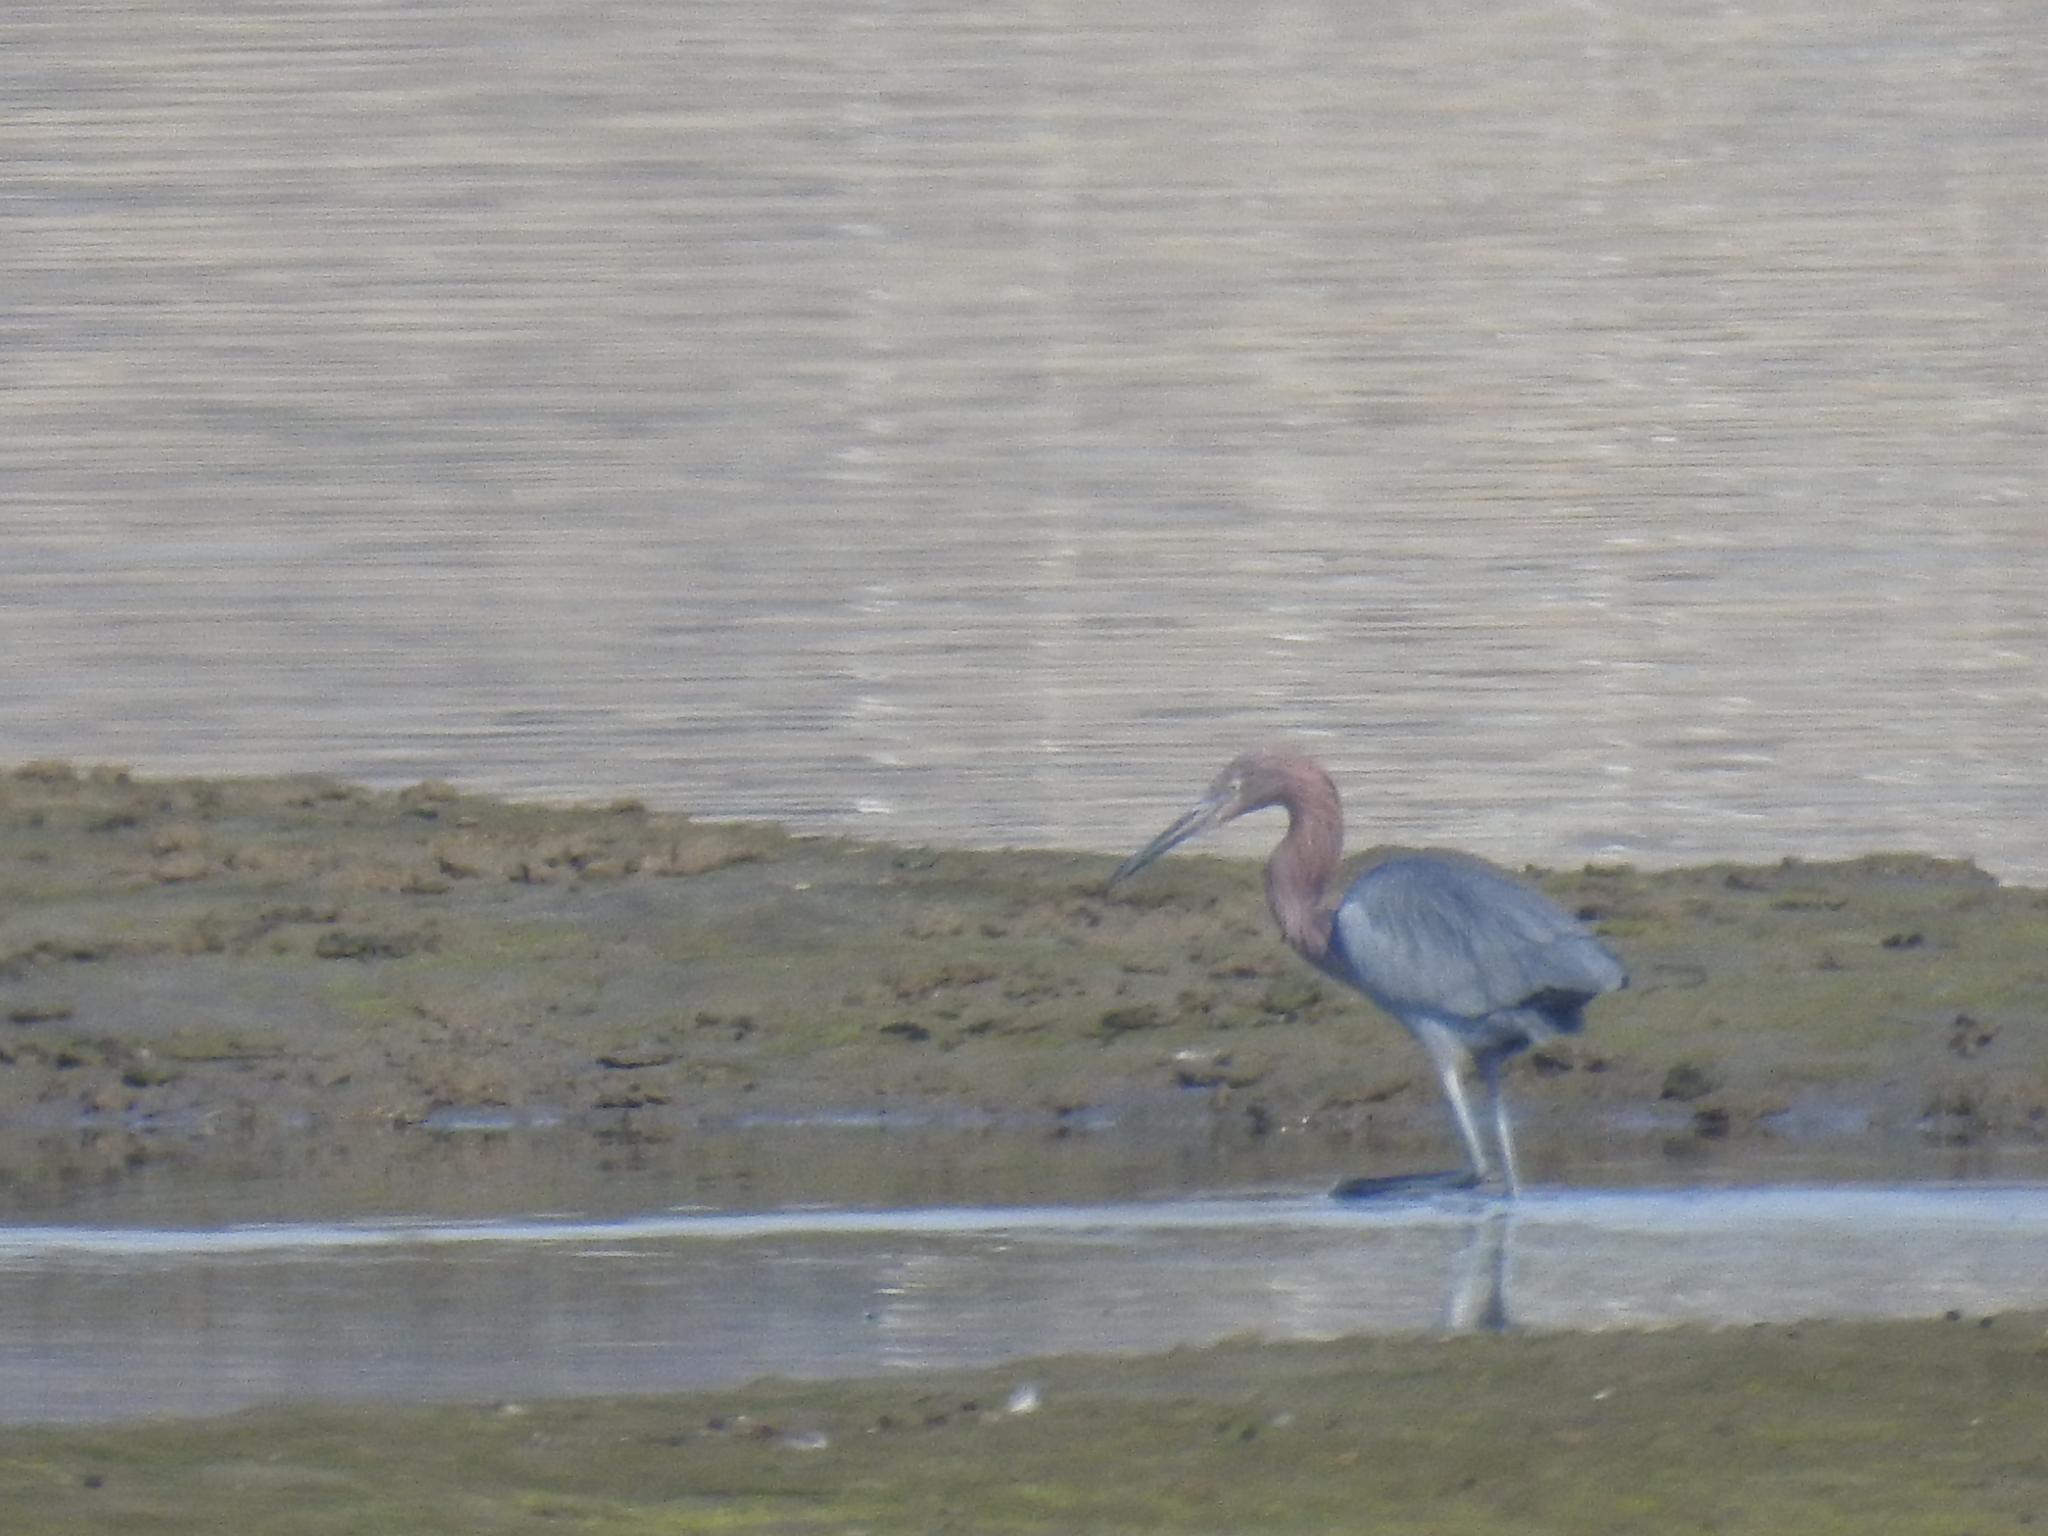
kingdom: Animalia
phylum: Chordata
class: Aves
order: Pelecaniformes
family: Ardeidae
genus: Egretta
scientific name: Egretta rufescens
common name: Reddish egret
